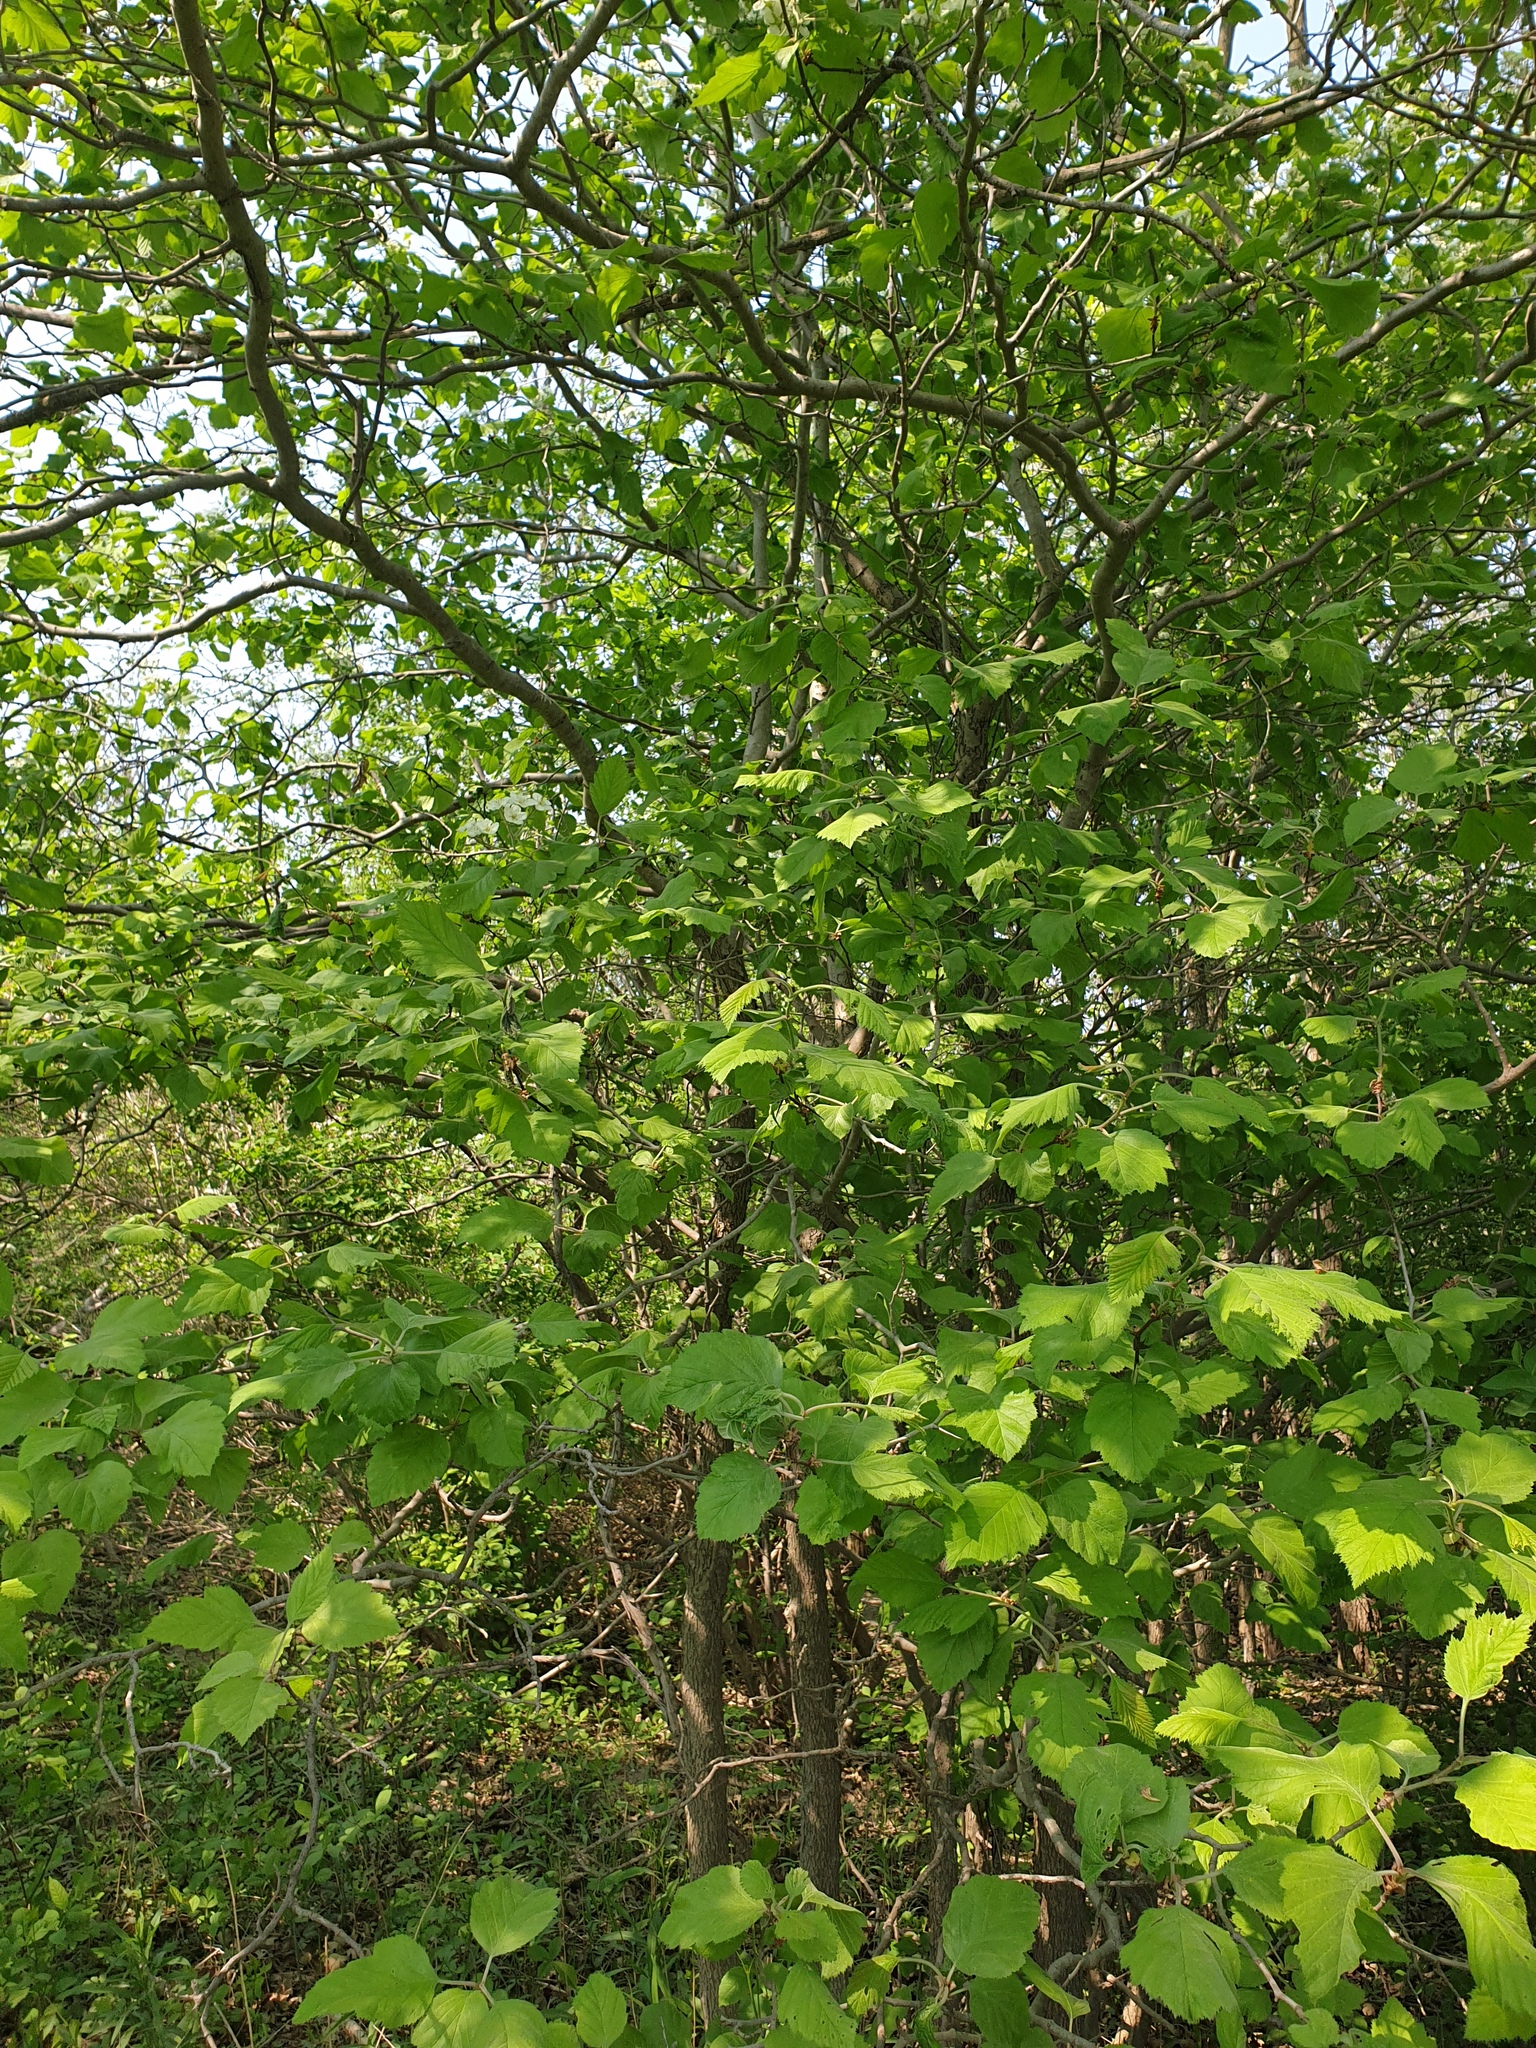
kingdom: Plantae
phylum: Tracheophyta
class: Magnoliopsida
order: Rosales
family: Rosaceae
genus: Crataegus
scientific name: Crataegus mollis
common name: Downy hawthorn
